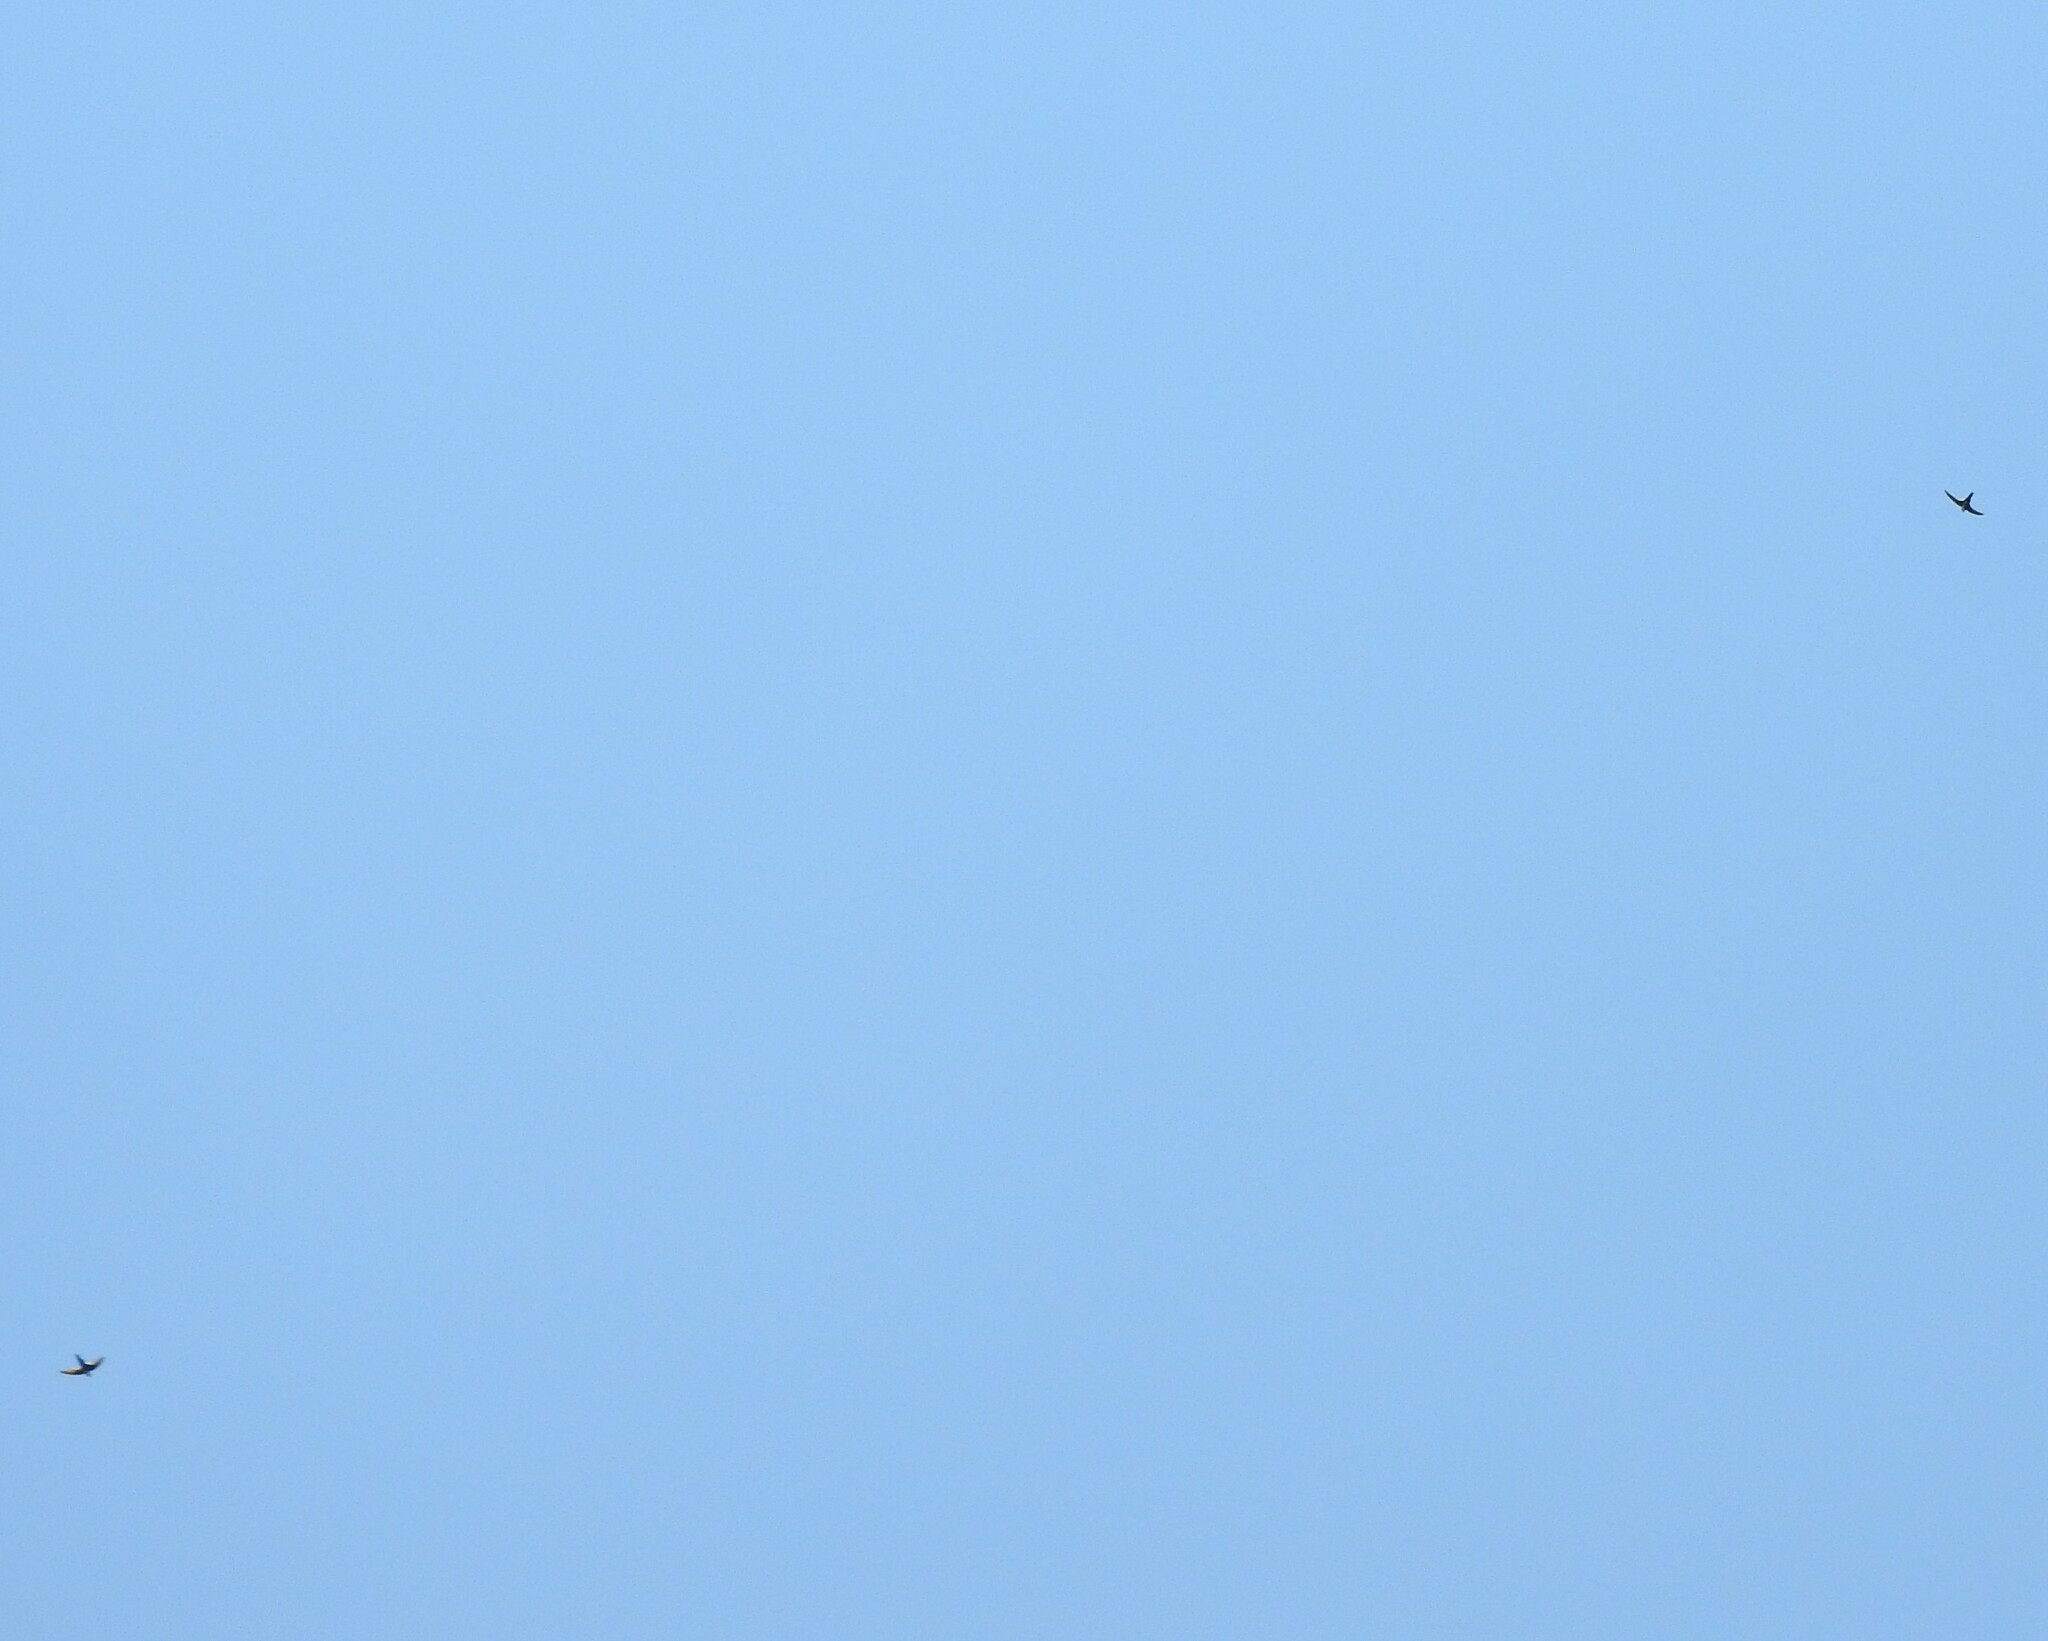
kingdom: Animalia
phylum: Chordata
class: Aves
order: Apodiformes
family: Apodidae
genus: Aeronautes
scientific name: Aeronautes saxatalis
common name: White-throated swift
